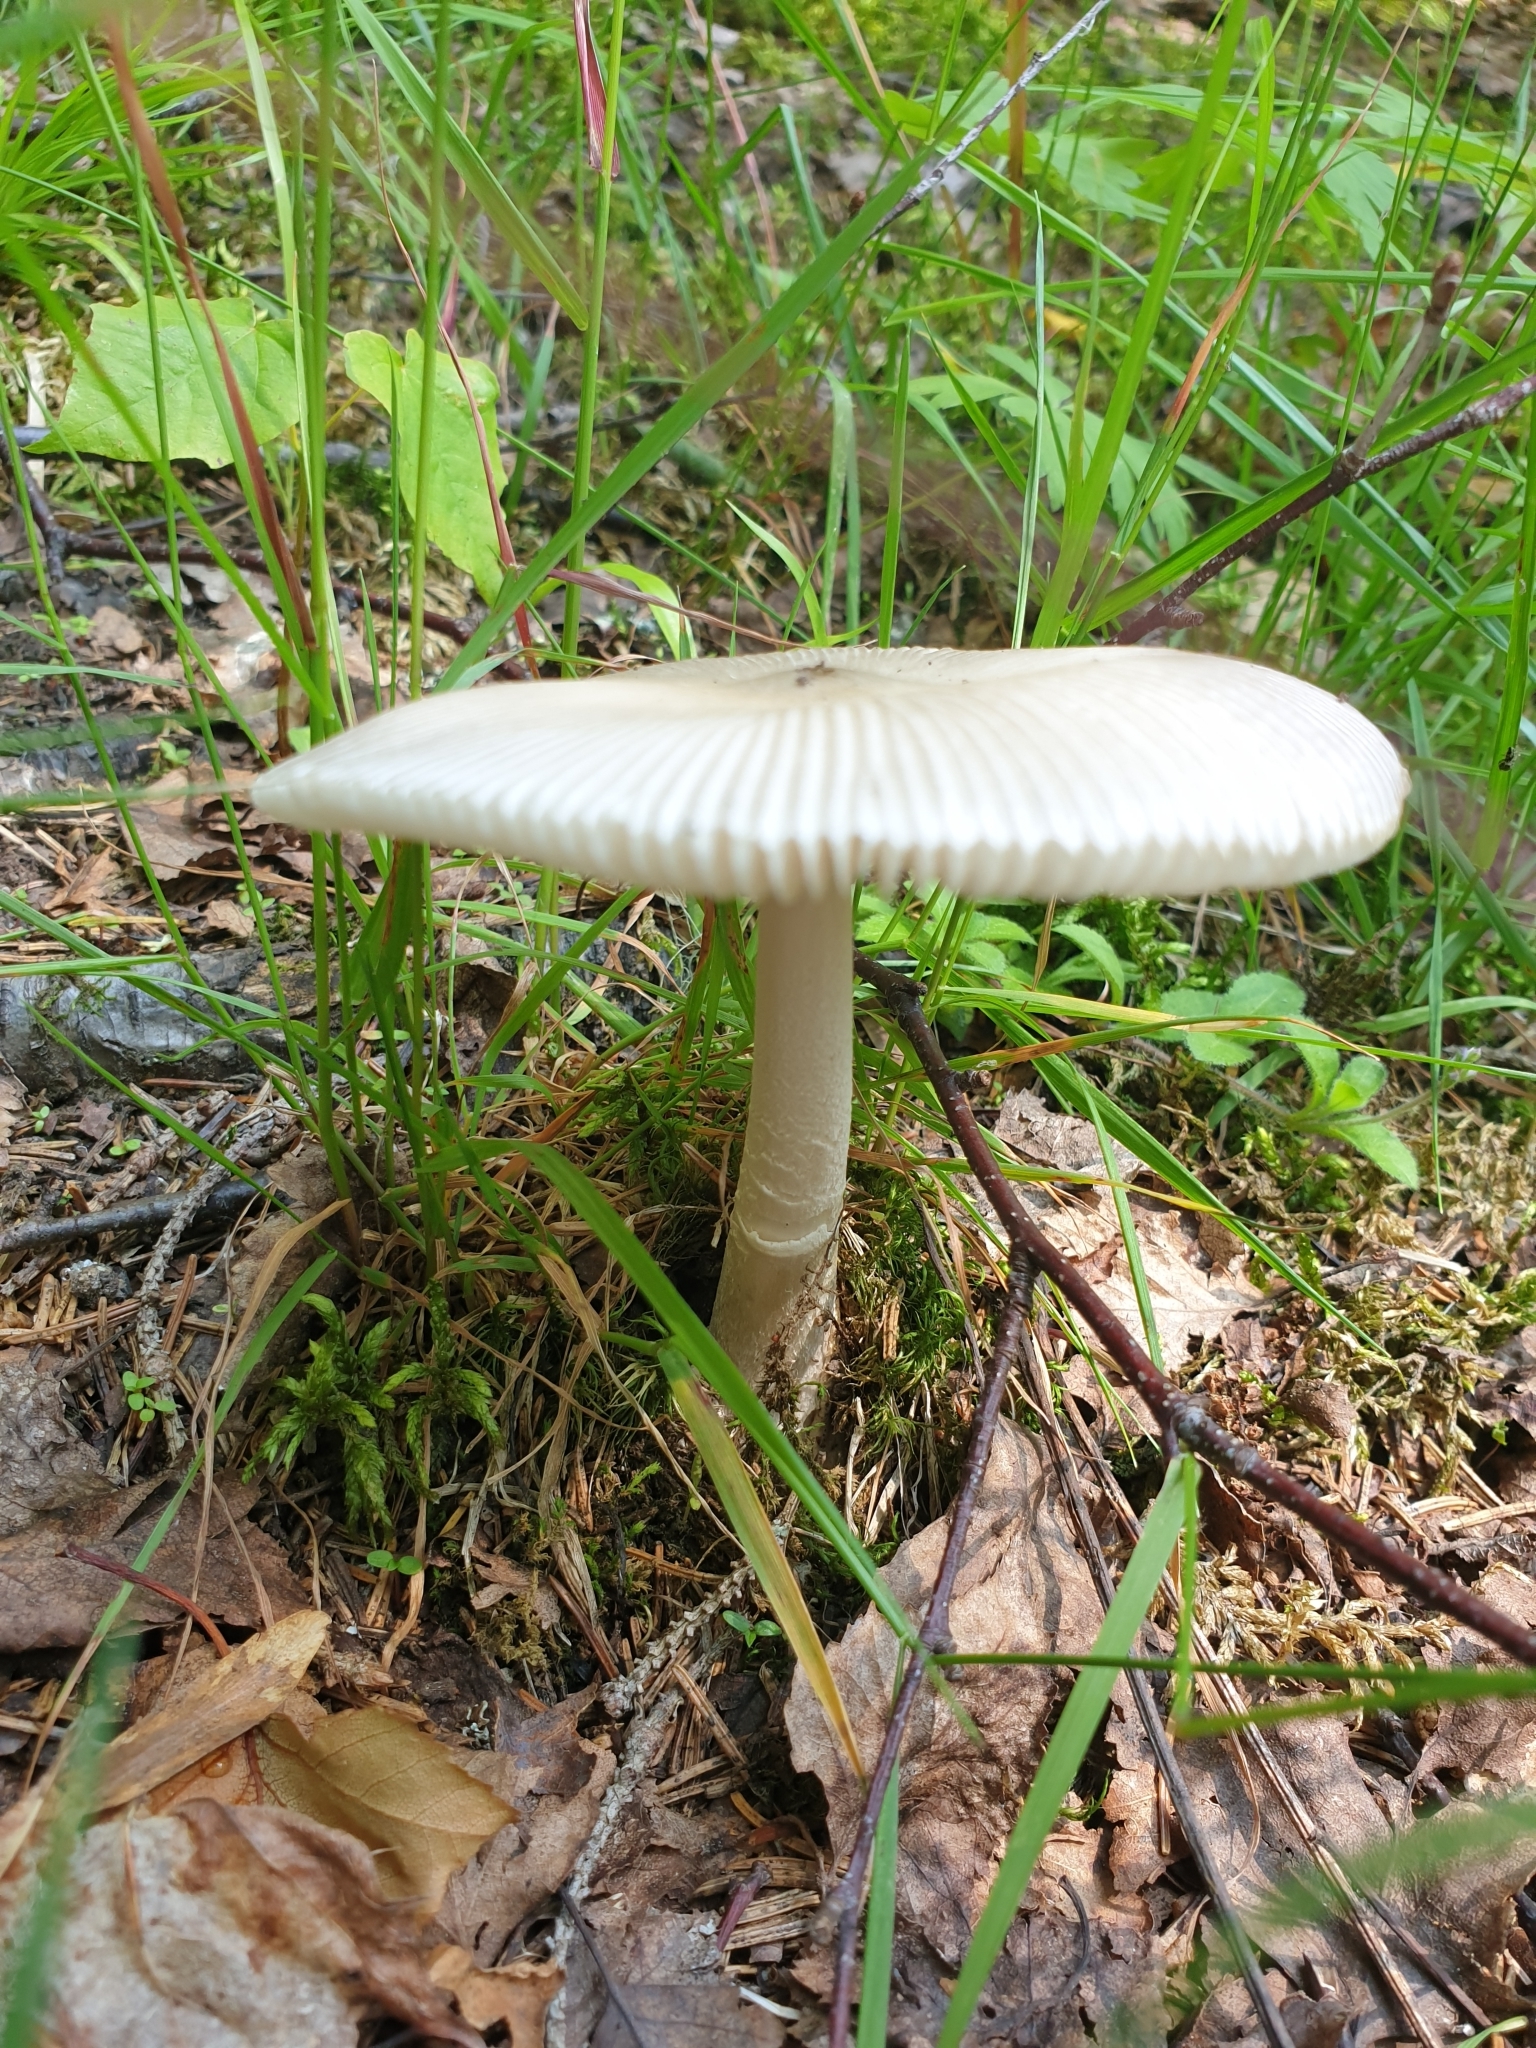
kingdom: Fungi
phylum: Basidiomycota
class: Agaricomycetes
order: Agaricales
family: Amanitaceae
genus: Amanita
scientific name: Amanita vaginata
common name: Grisette
